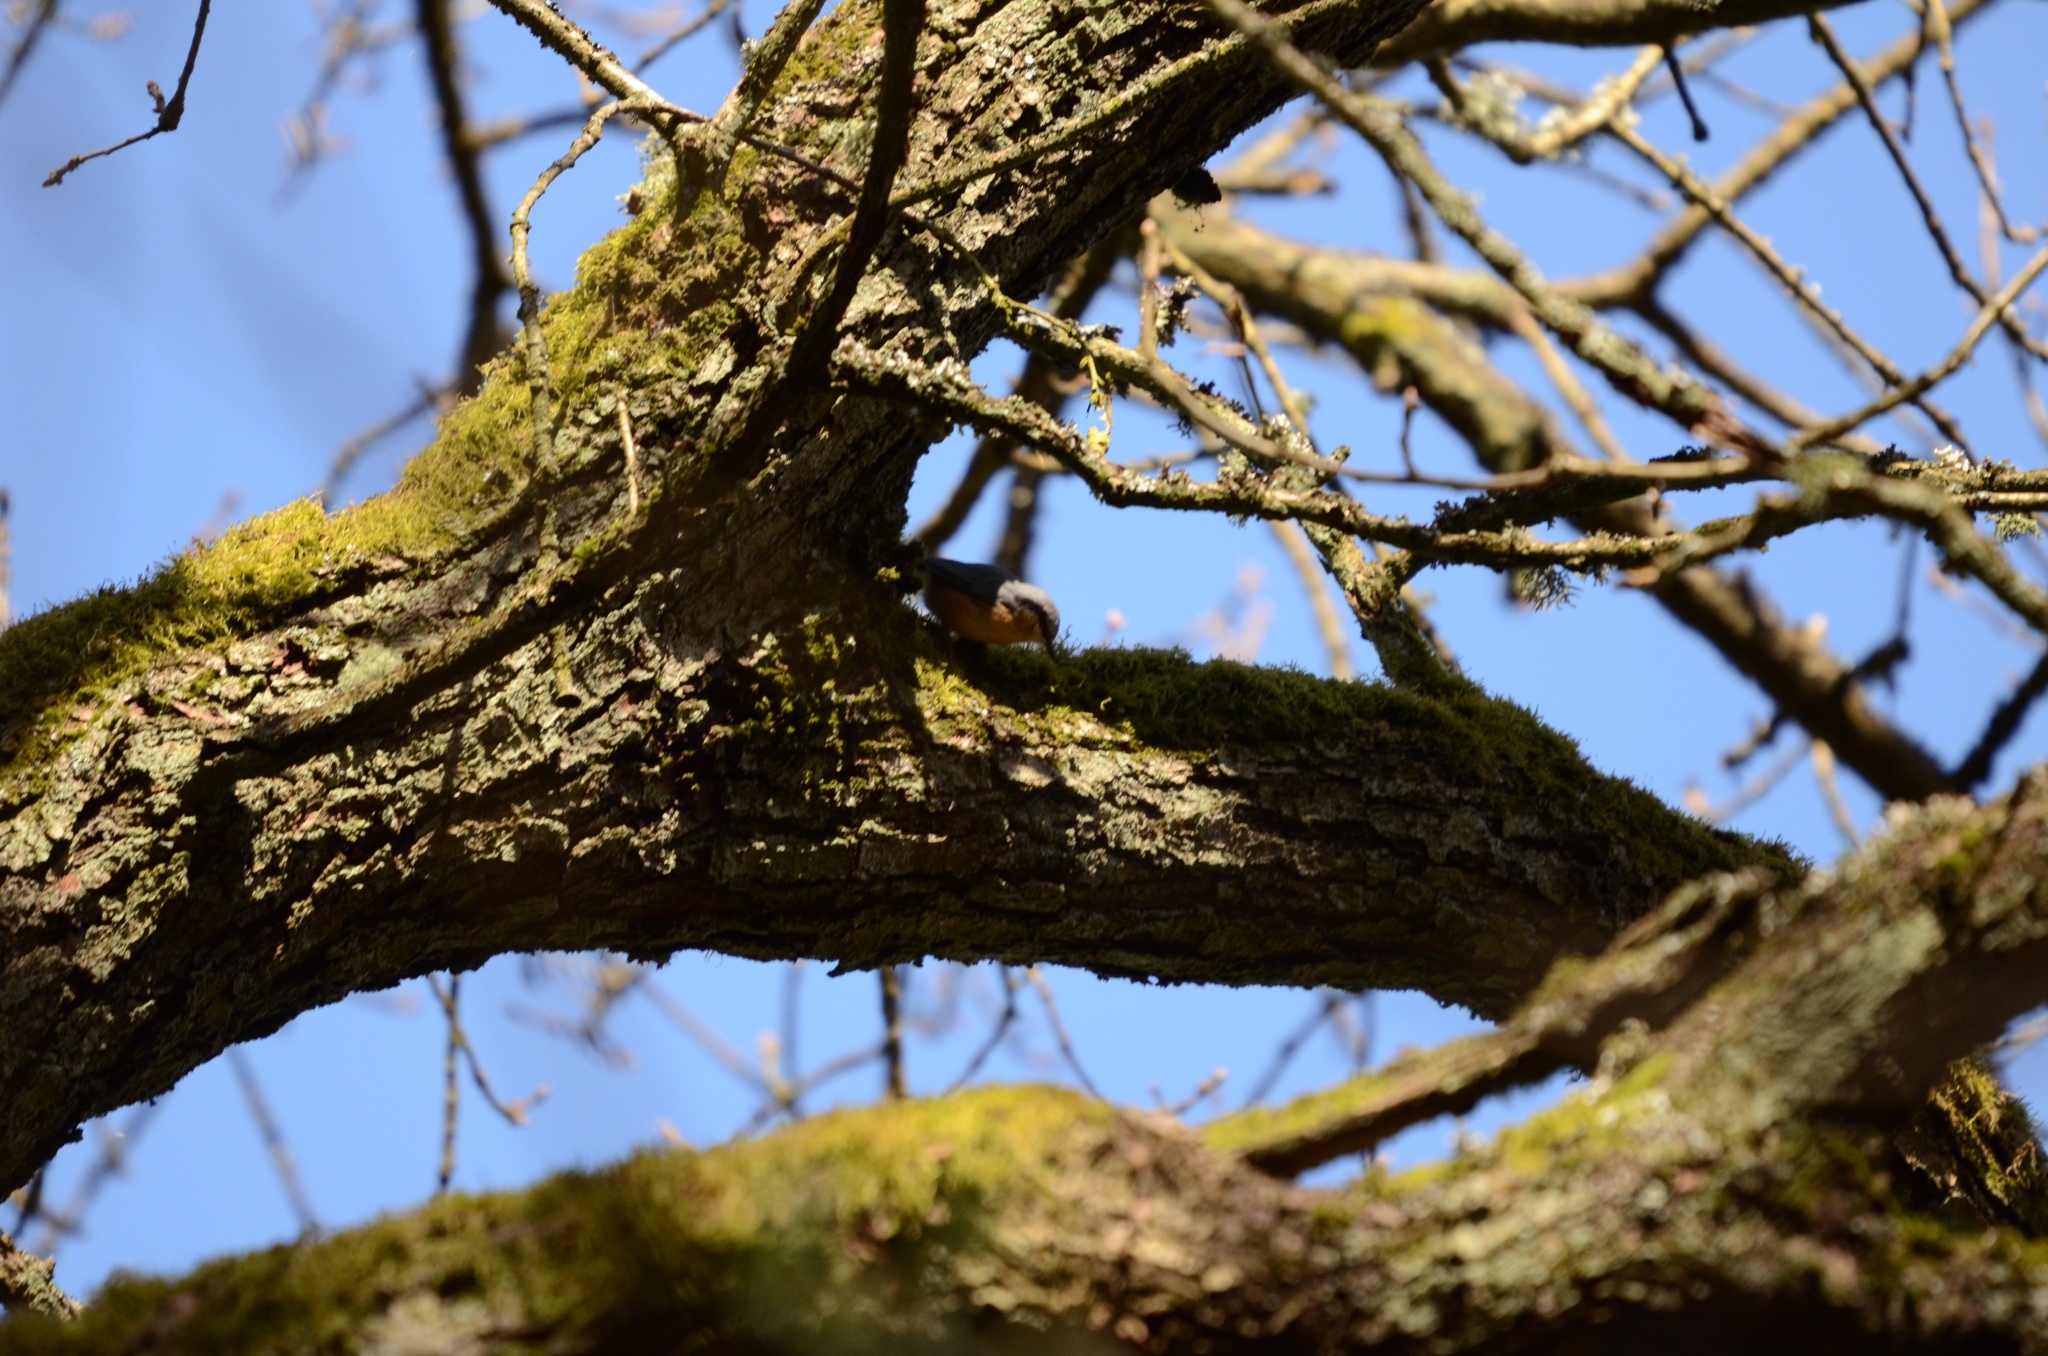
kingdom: Animalia
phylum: Chordata
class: Aves
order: Passeriformes
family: Sittidae
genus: Sitta
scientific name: Sitta europaea
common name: Eurasian nuthatch
